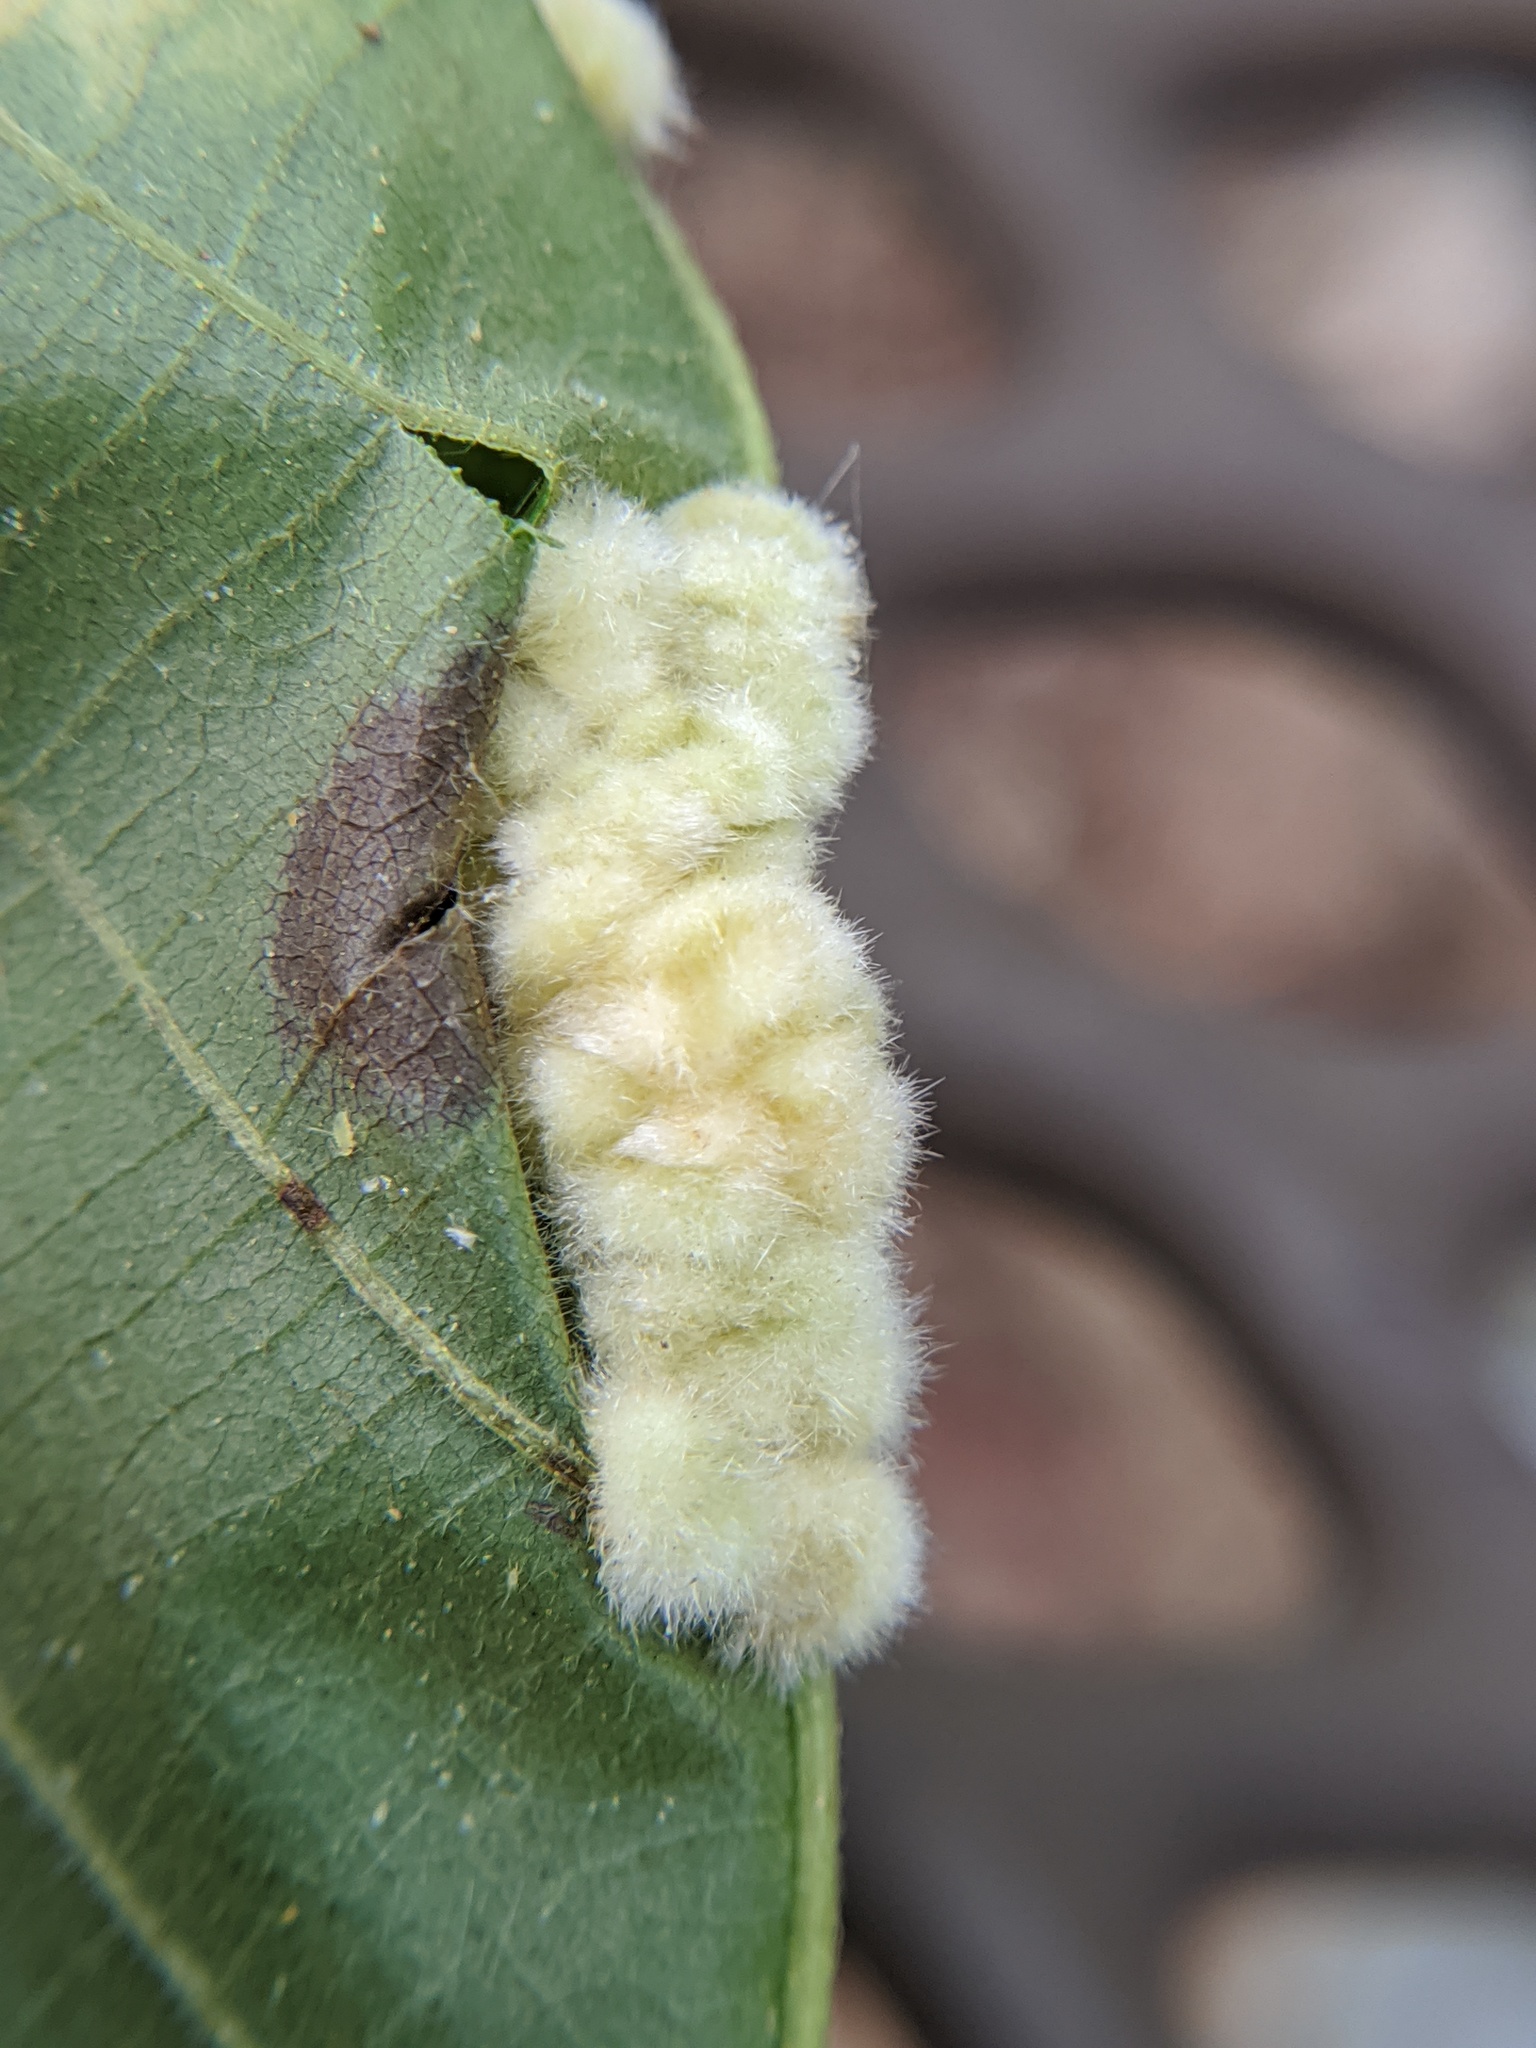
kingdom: Animalia
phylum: Arthropoda
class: Insecta
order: Diptera
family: Cecidomyiidae
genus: Caryomyia
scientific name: Caryomyia aggregata
